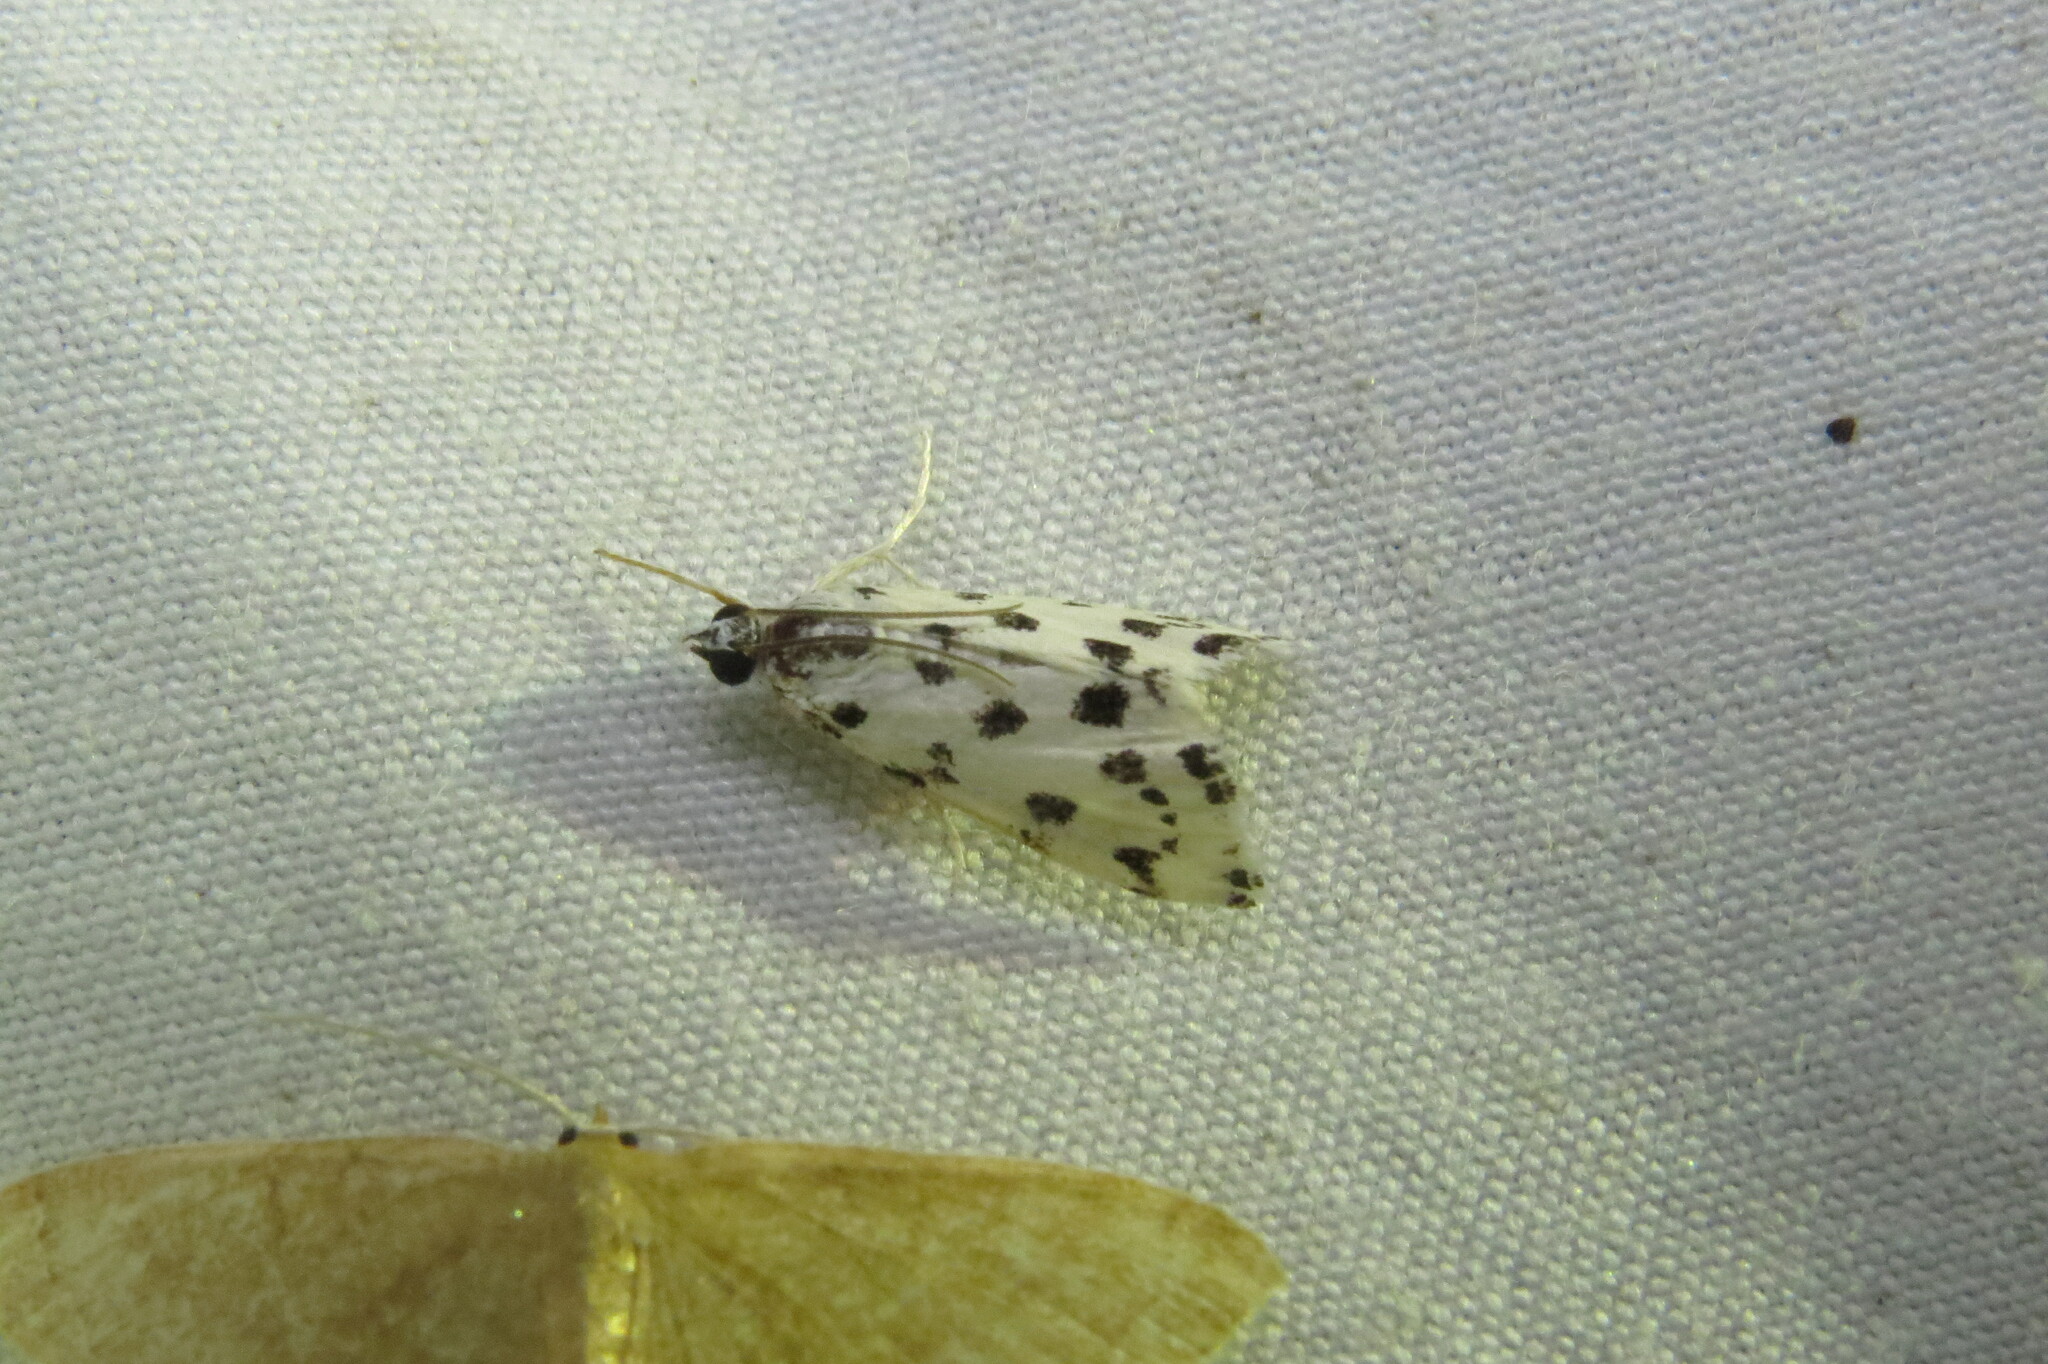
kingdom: Animalia
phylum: Arthropoda
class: Insecta
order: Lepidoptera
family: Crambidae
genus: Eustixia
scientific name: Eustixia pupula
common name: American cabbage pearl
